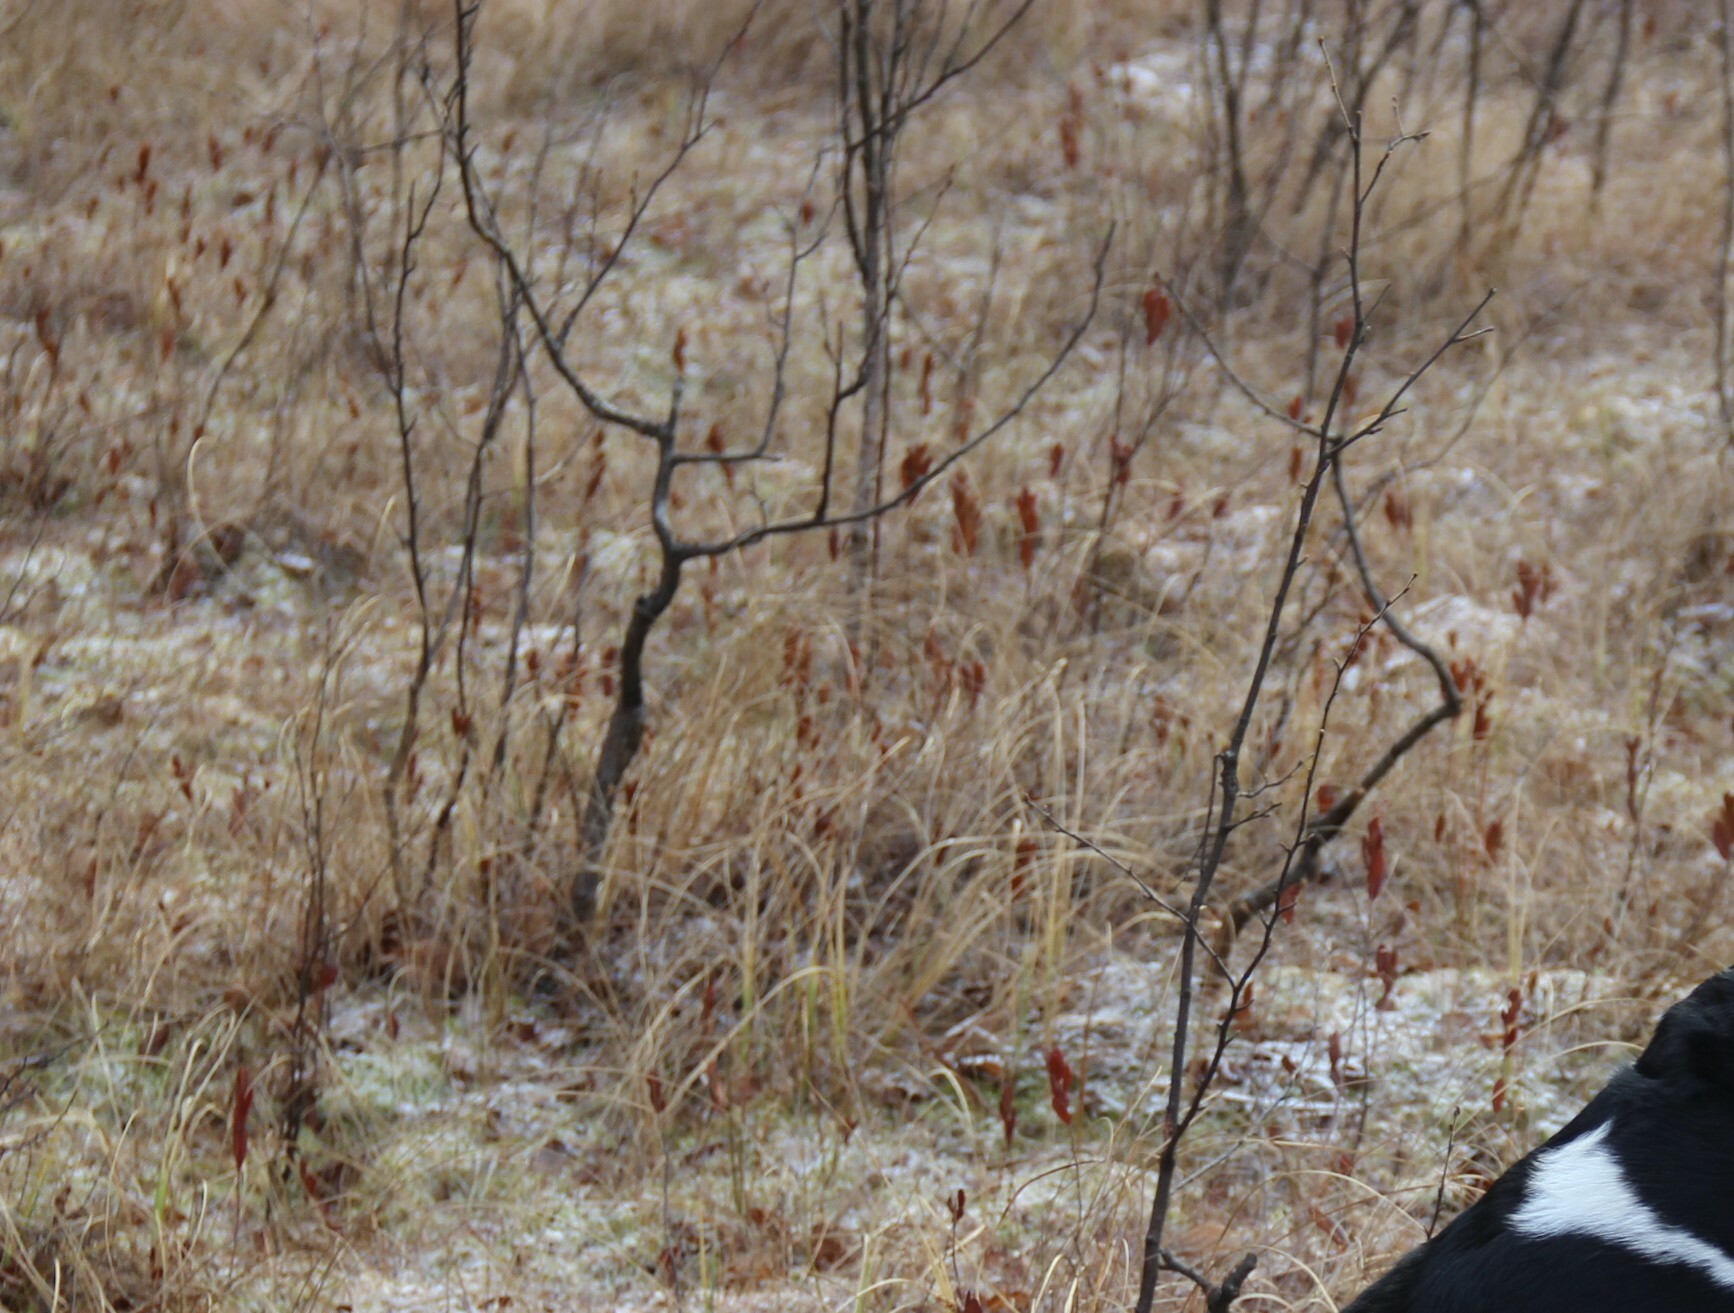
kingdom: Plantae
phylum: Tracheophyta
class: Magnoliopsida
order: Ericales
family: Ericaceae
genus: Chamaedaphne
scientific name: Chamaedaphne calyculata
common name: Leatherleaf
